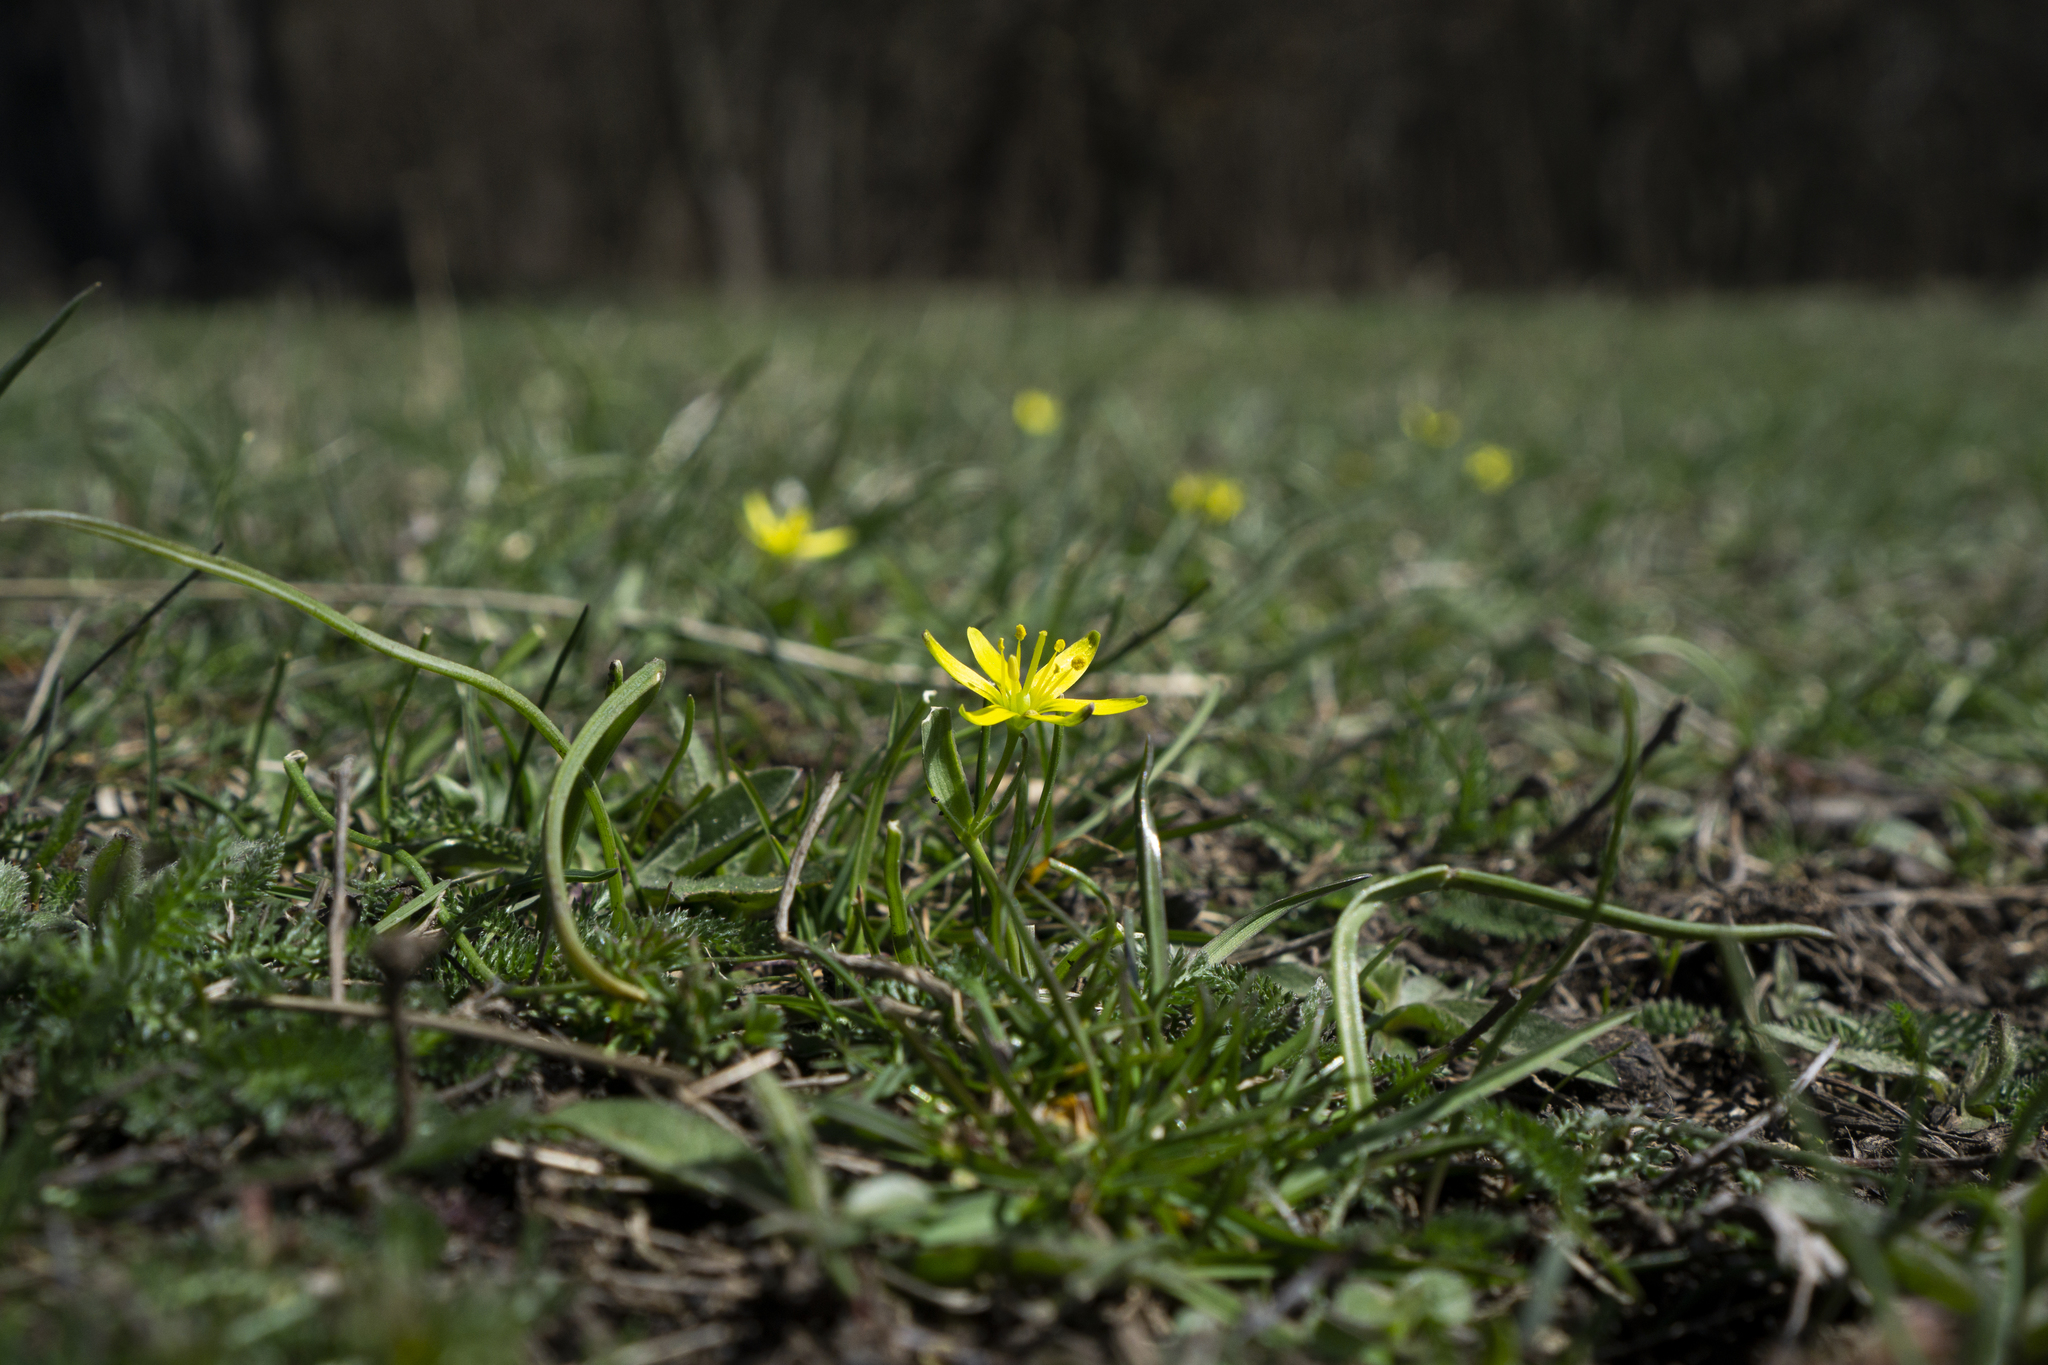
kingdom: Plantae
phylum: Tracheophyta
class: Liliopsida
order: Liliales
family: Liliaceae
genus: Gagea
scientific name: Gagea lutea
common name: Yellow star-of-bethlehem
